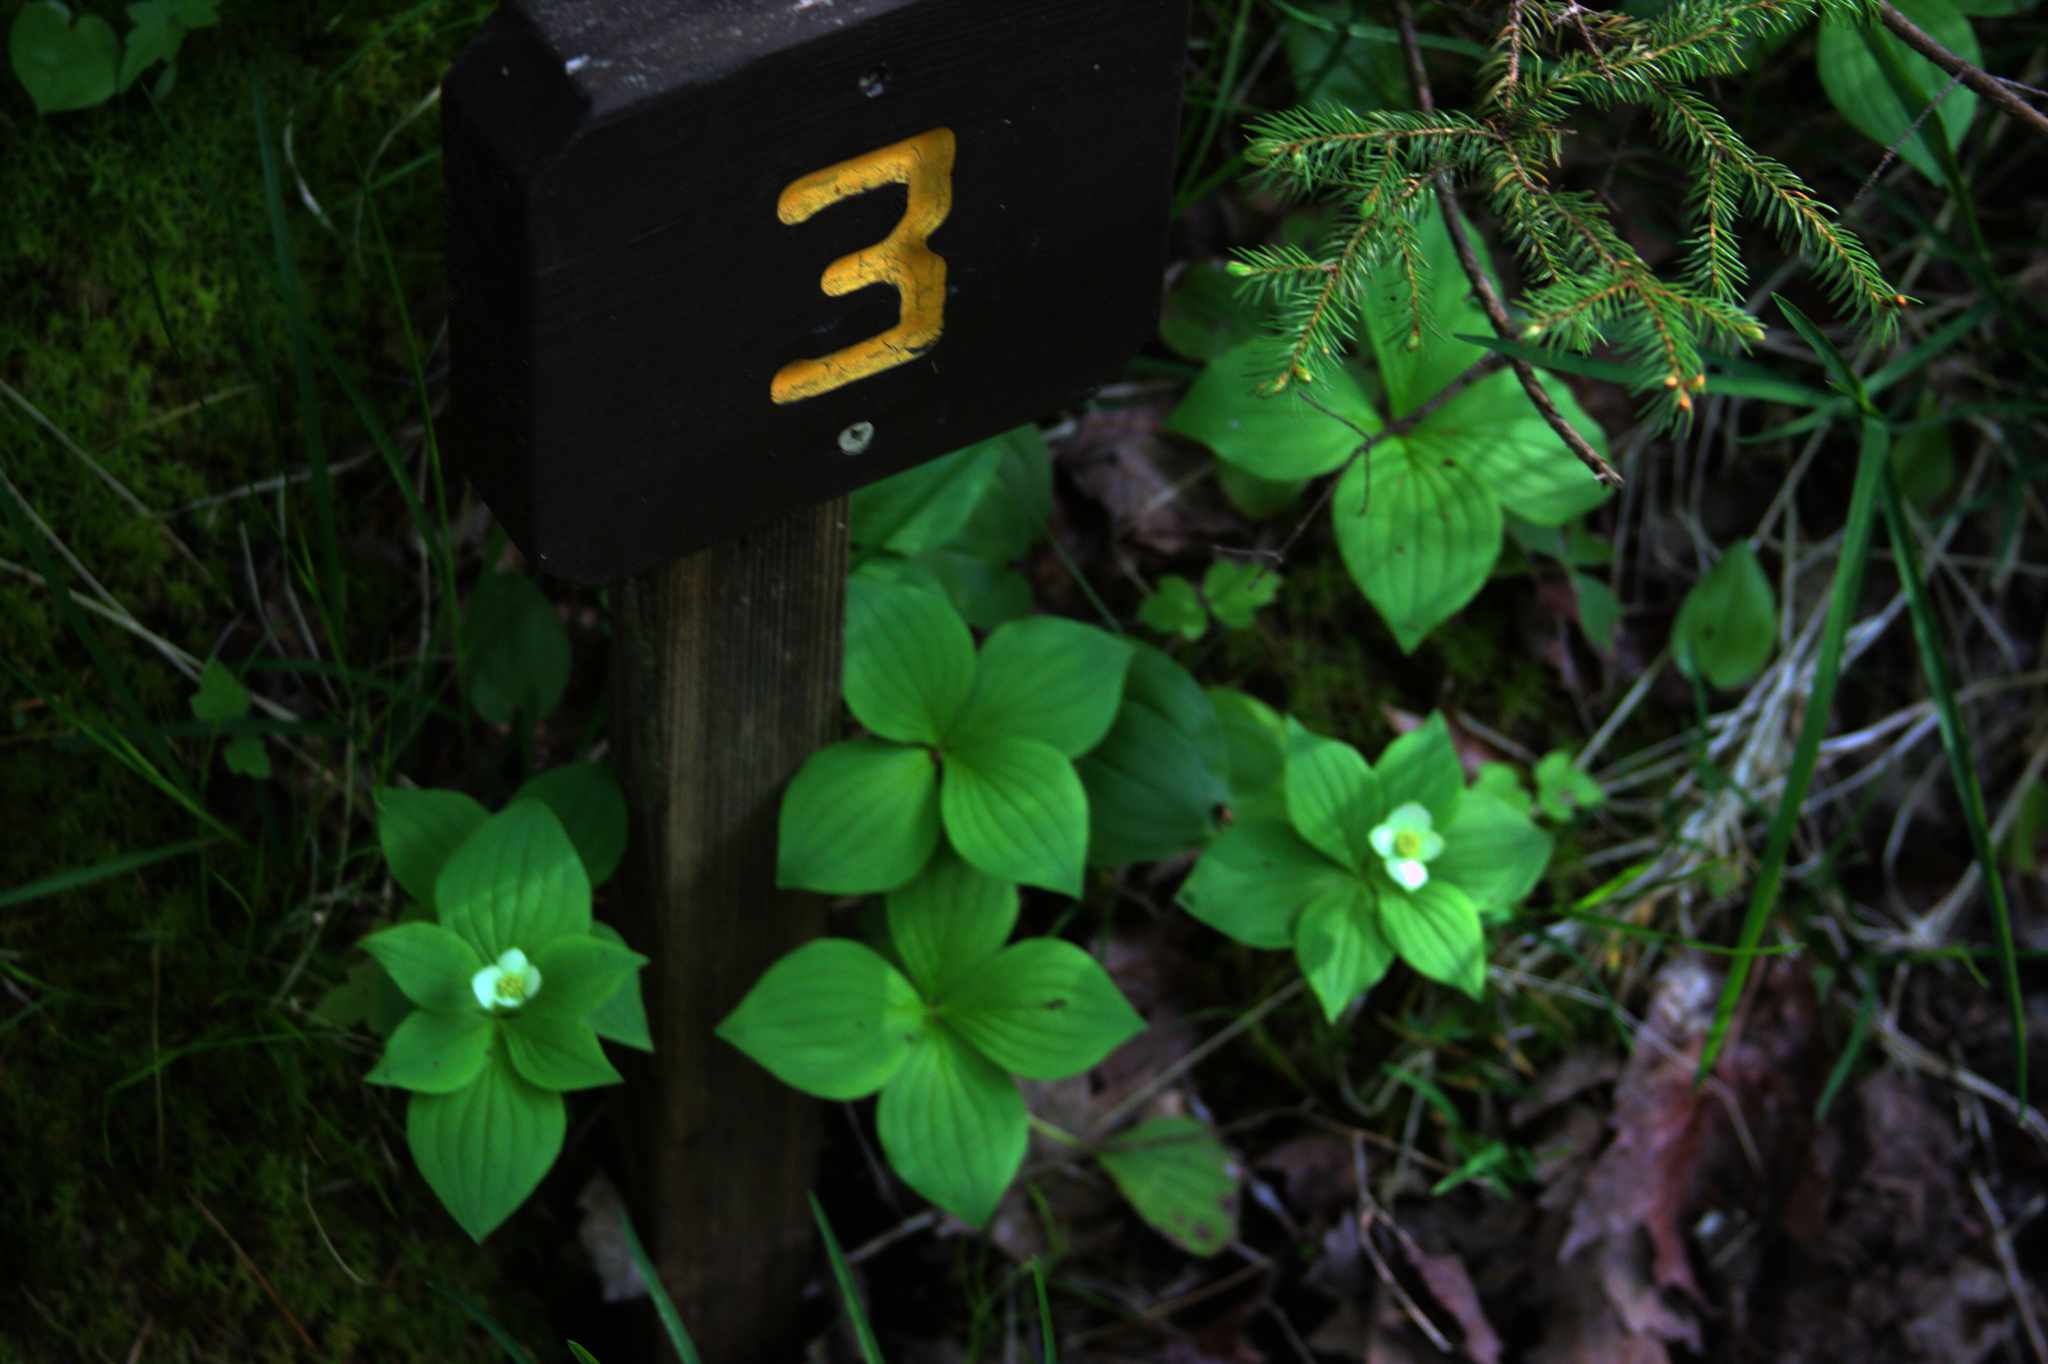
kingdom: Plantae
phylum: Tracheophyta
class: Magnoliopsida
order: Cornales
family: Cornaceae
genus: Cornus
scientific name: Cornus canadensis
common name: Creeping dogwood
